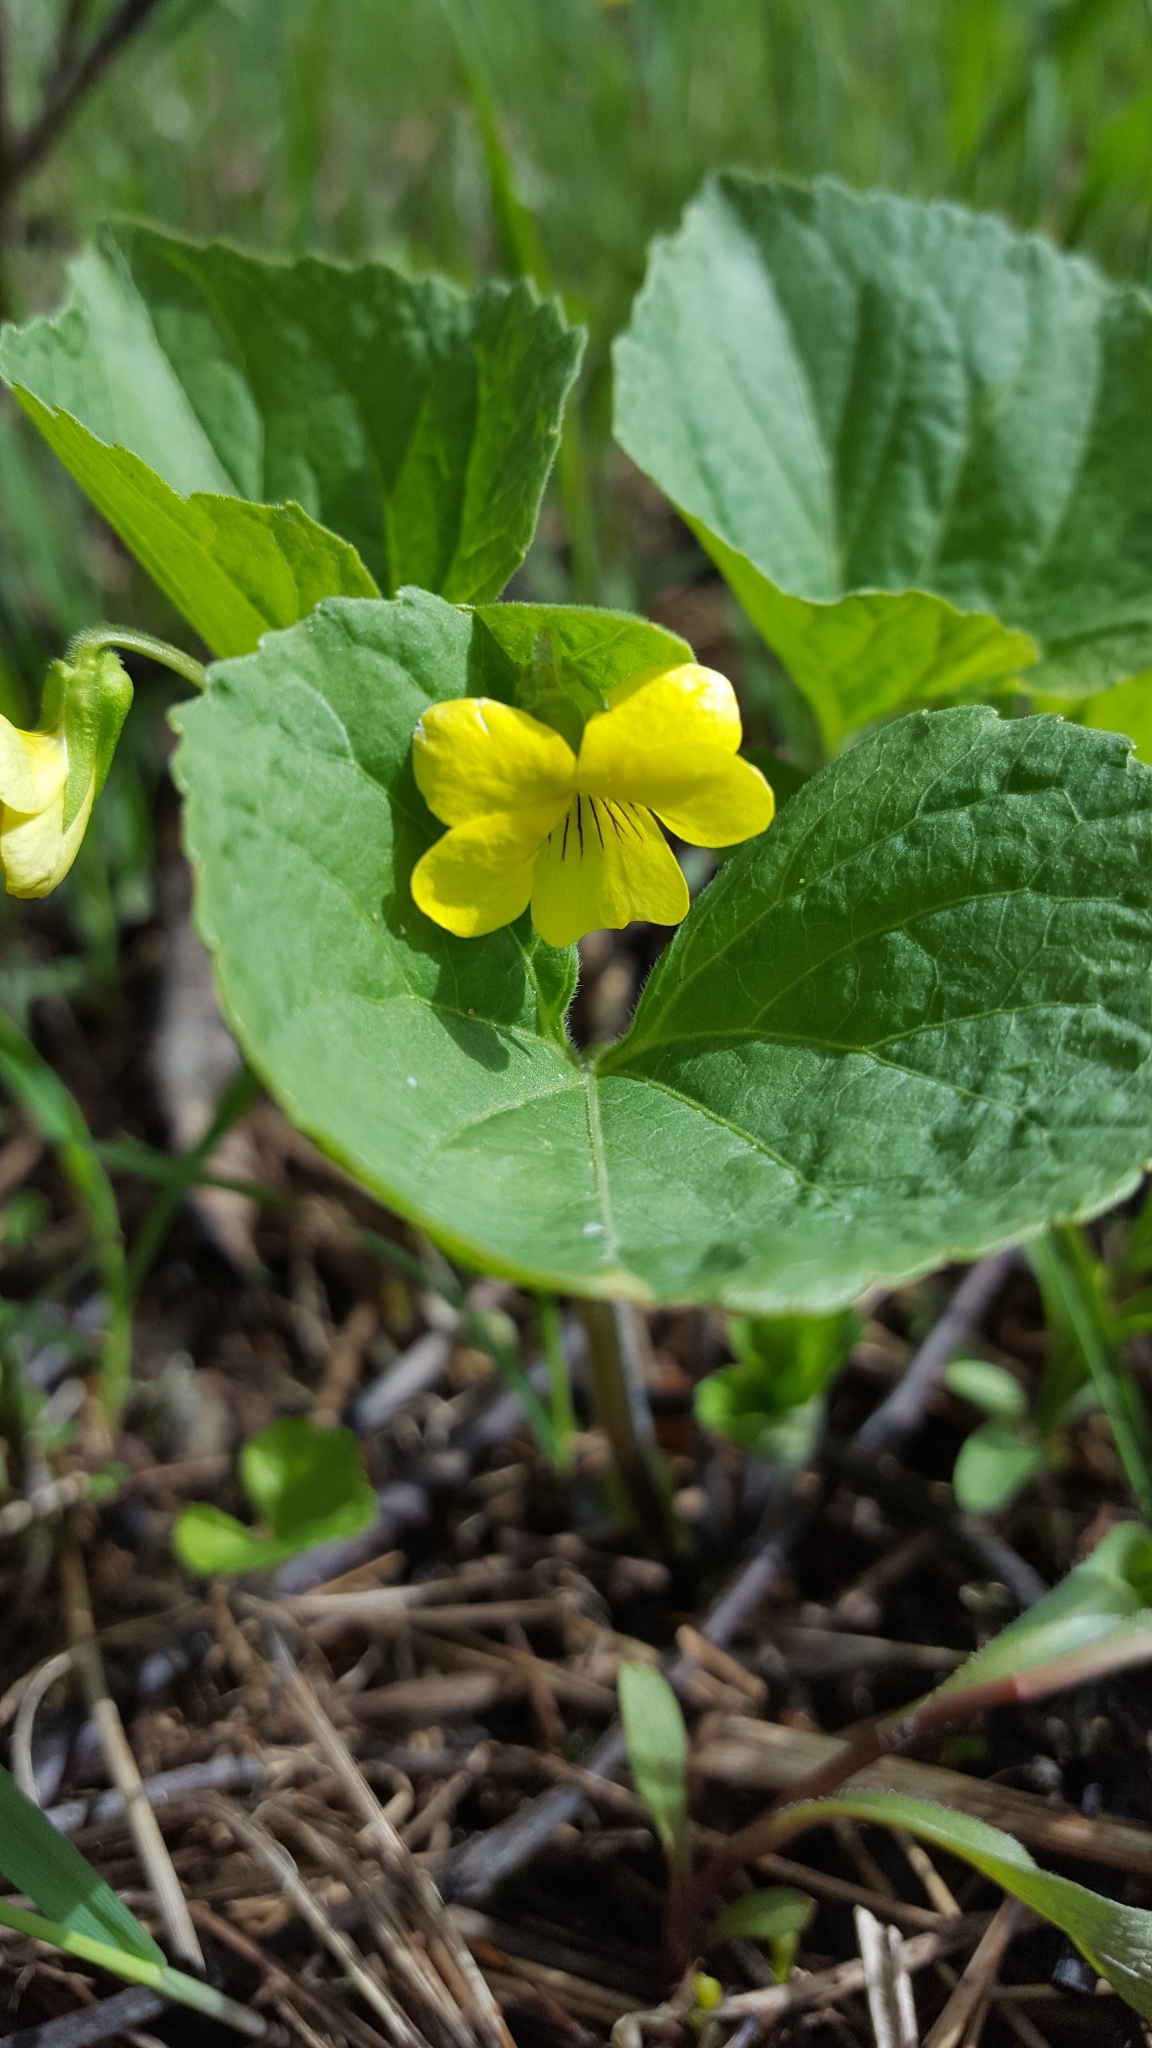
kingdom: Plantae
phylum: Tracheophyta
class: Magnoliopsida
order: Malpighiales
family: Violaceae
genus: Viola
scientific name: Viola eriocarpa
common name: Smooth yellow violet
